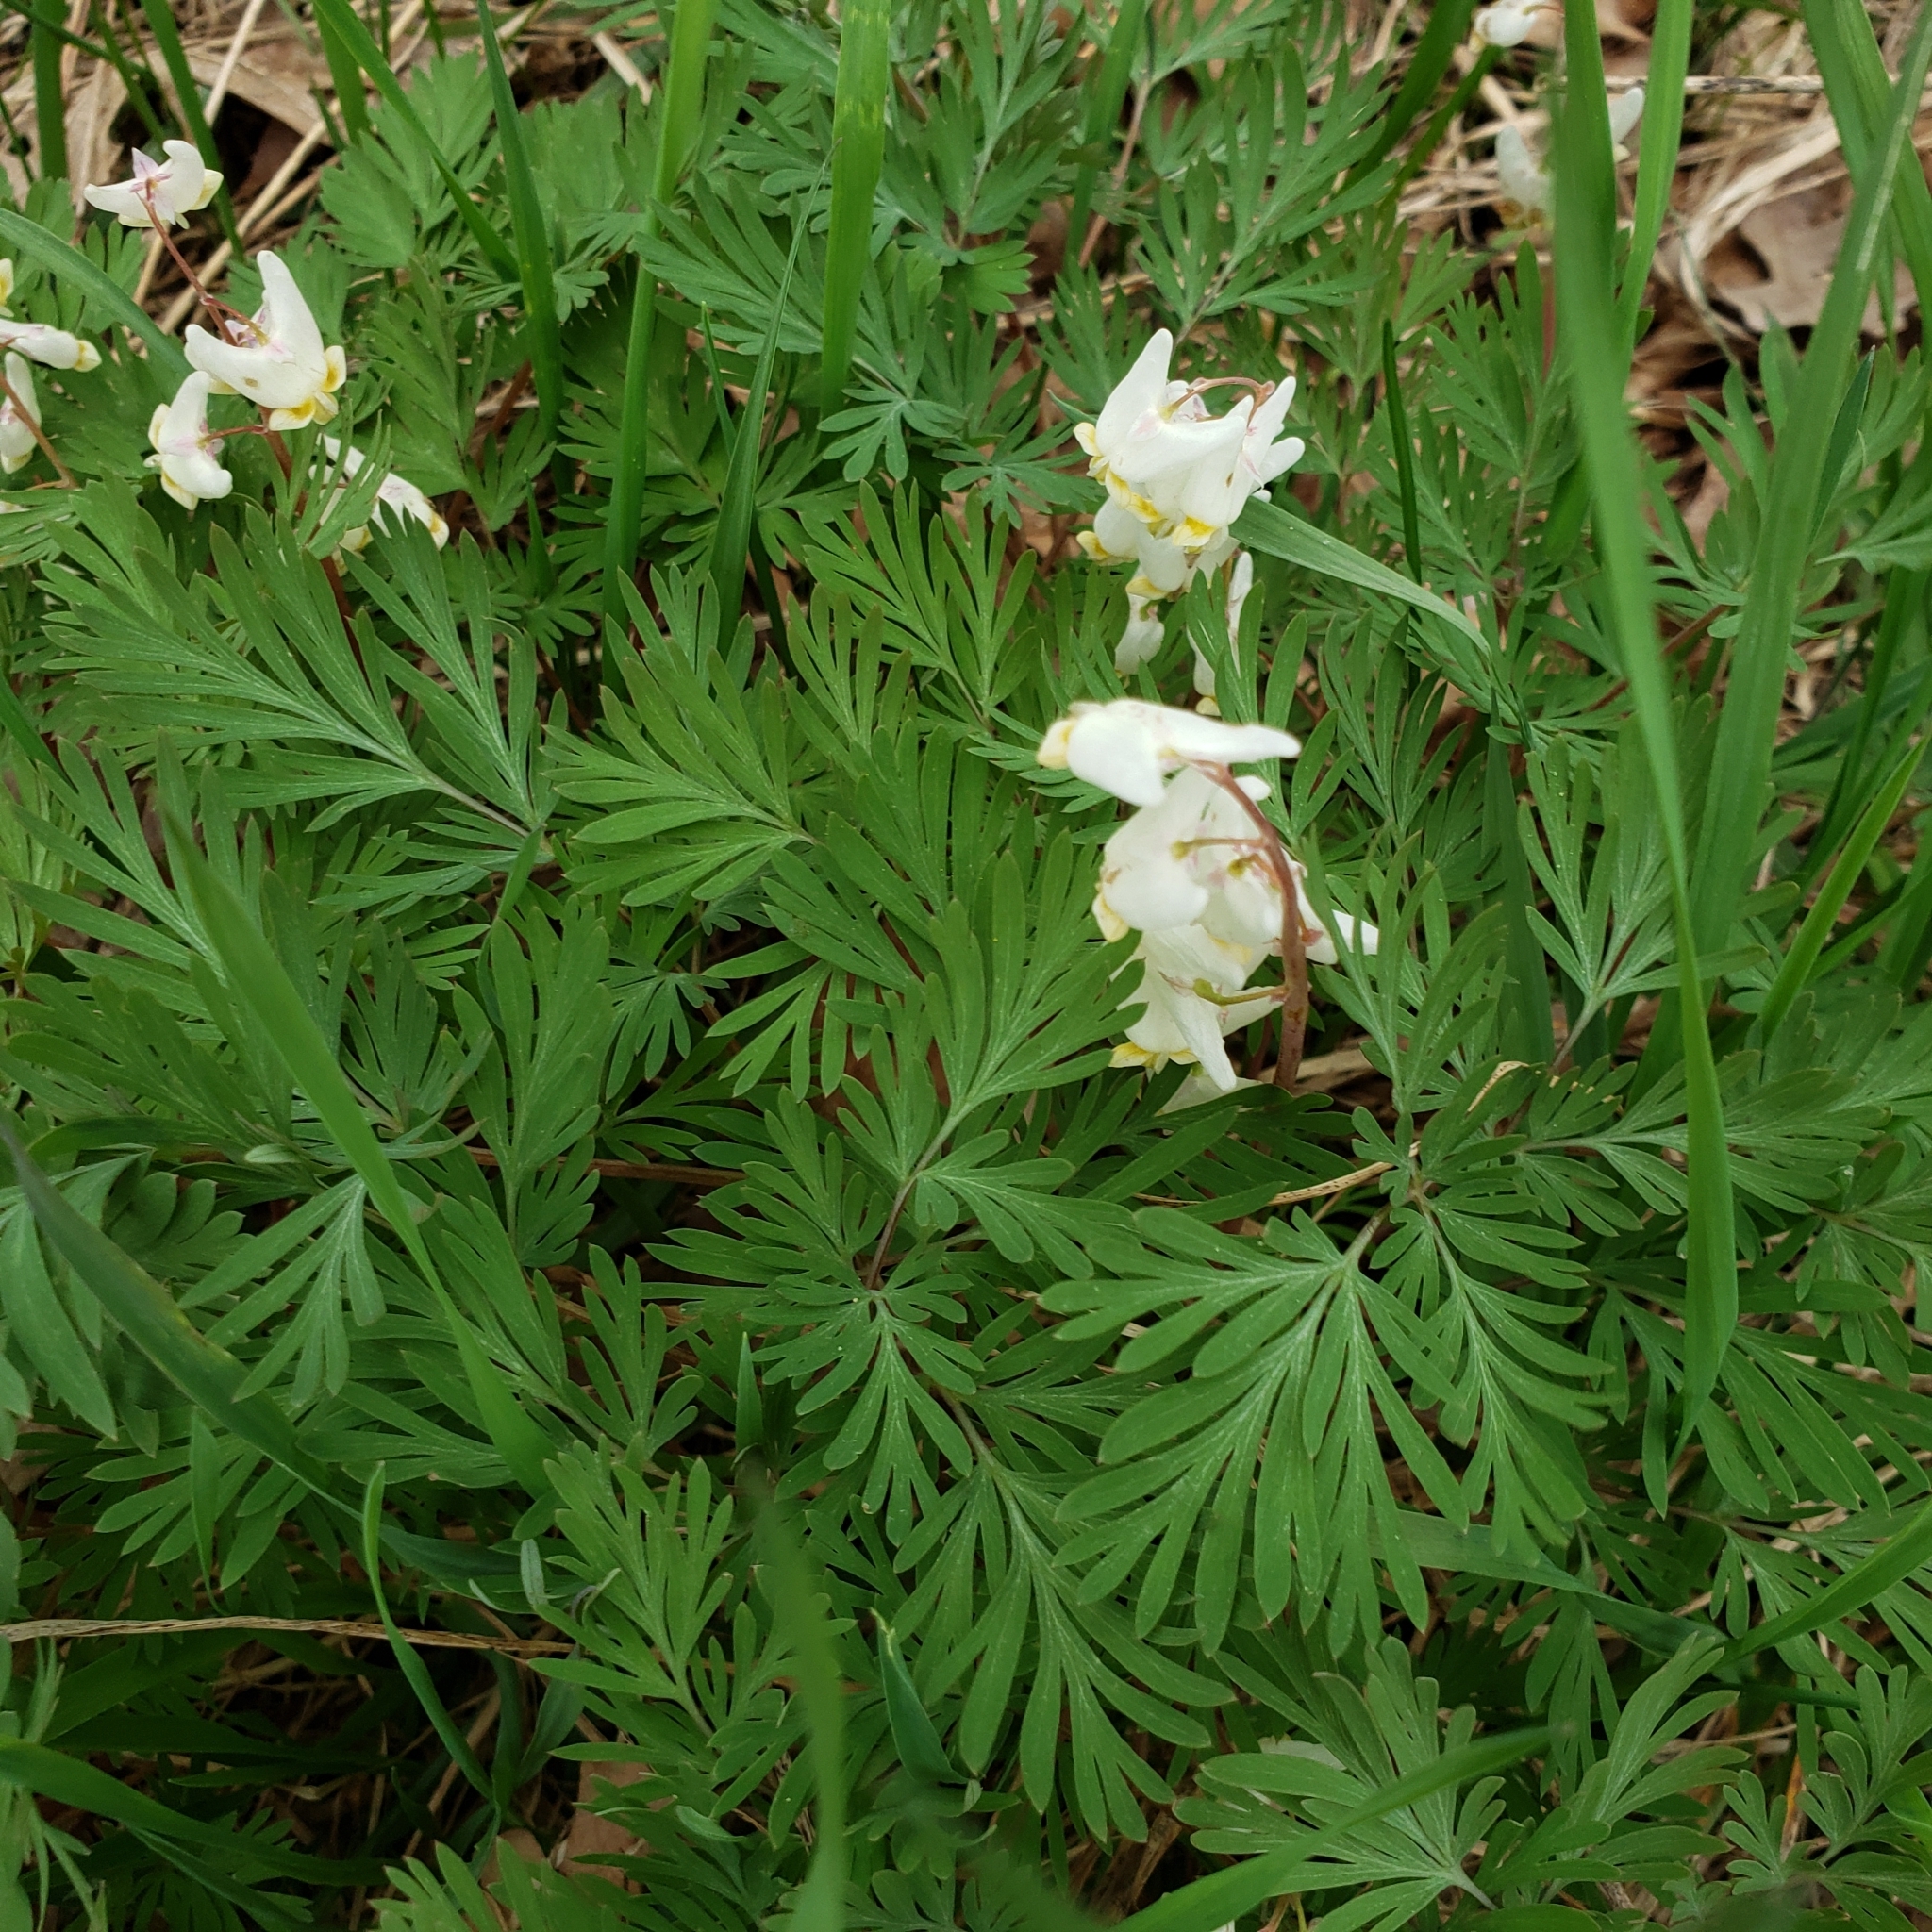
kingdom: Plantae
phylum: Tracheophyta
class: Magnoliopsida
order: Ranunculales
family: Papaveraceae
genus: Dicentra
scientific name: Dicentra cucullaria
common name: Dutchman's breeches
